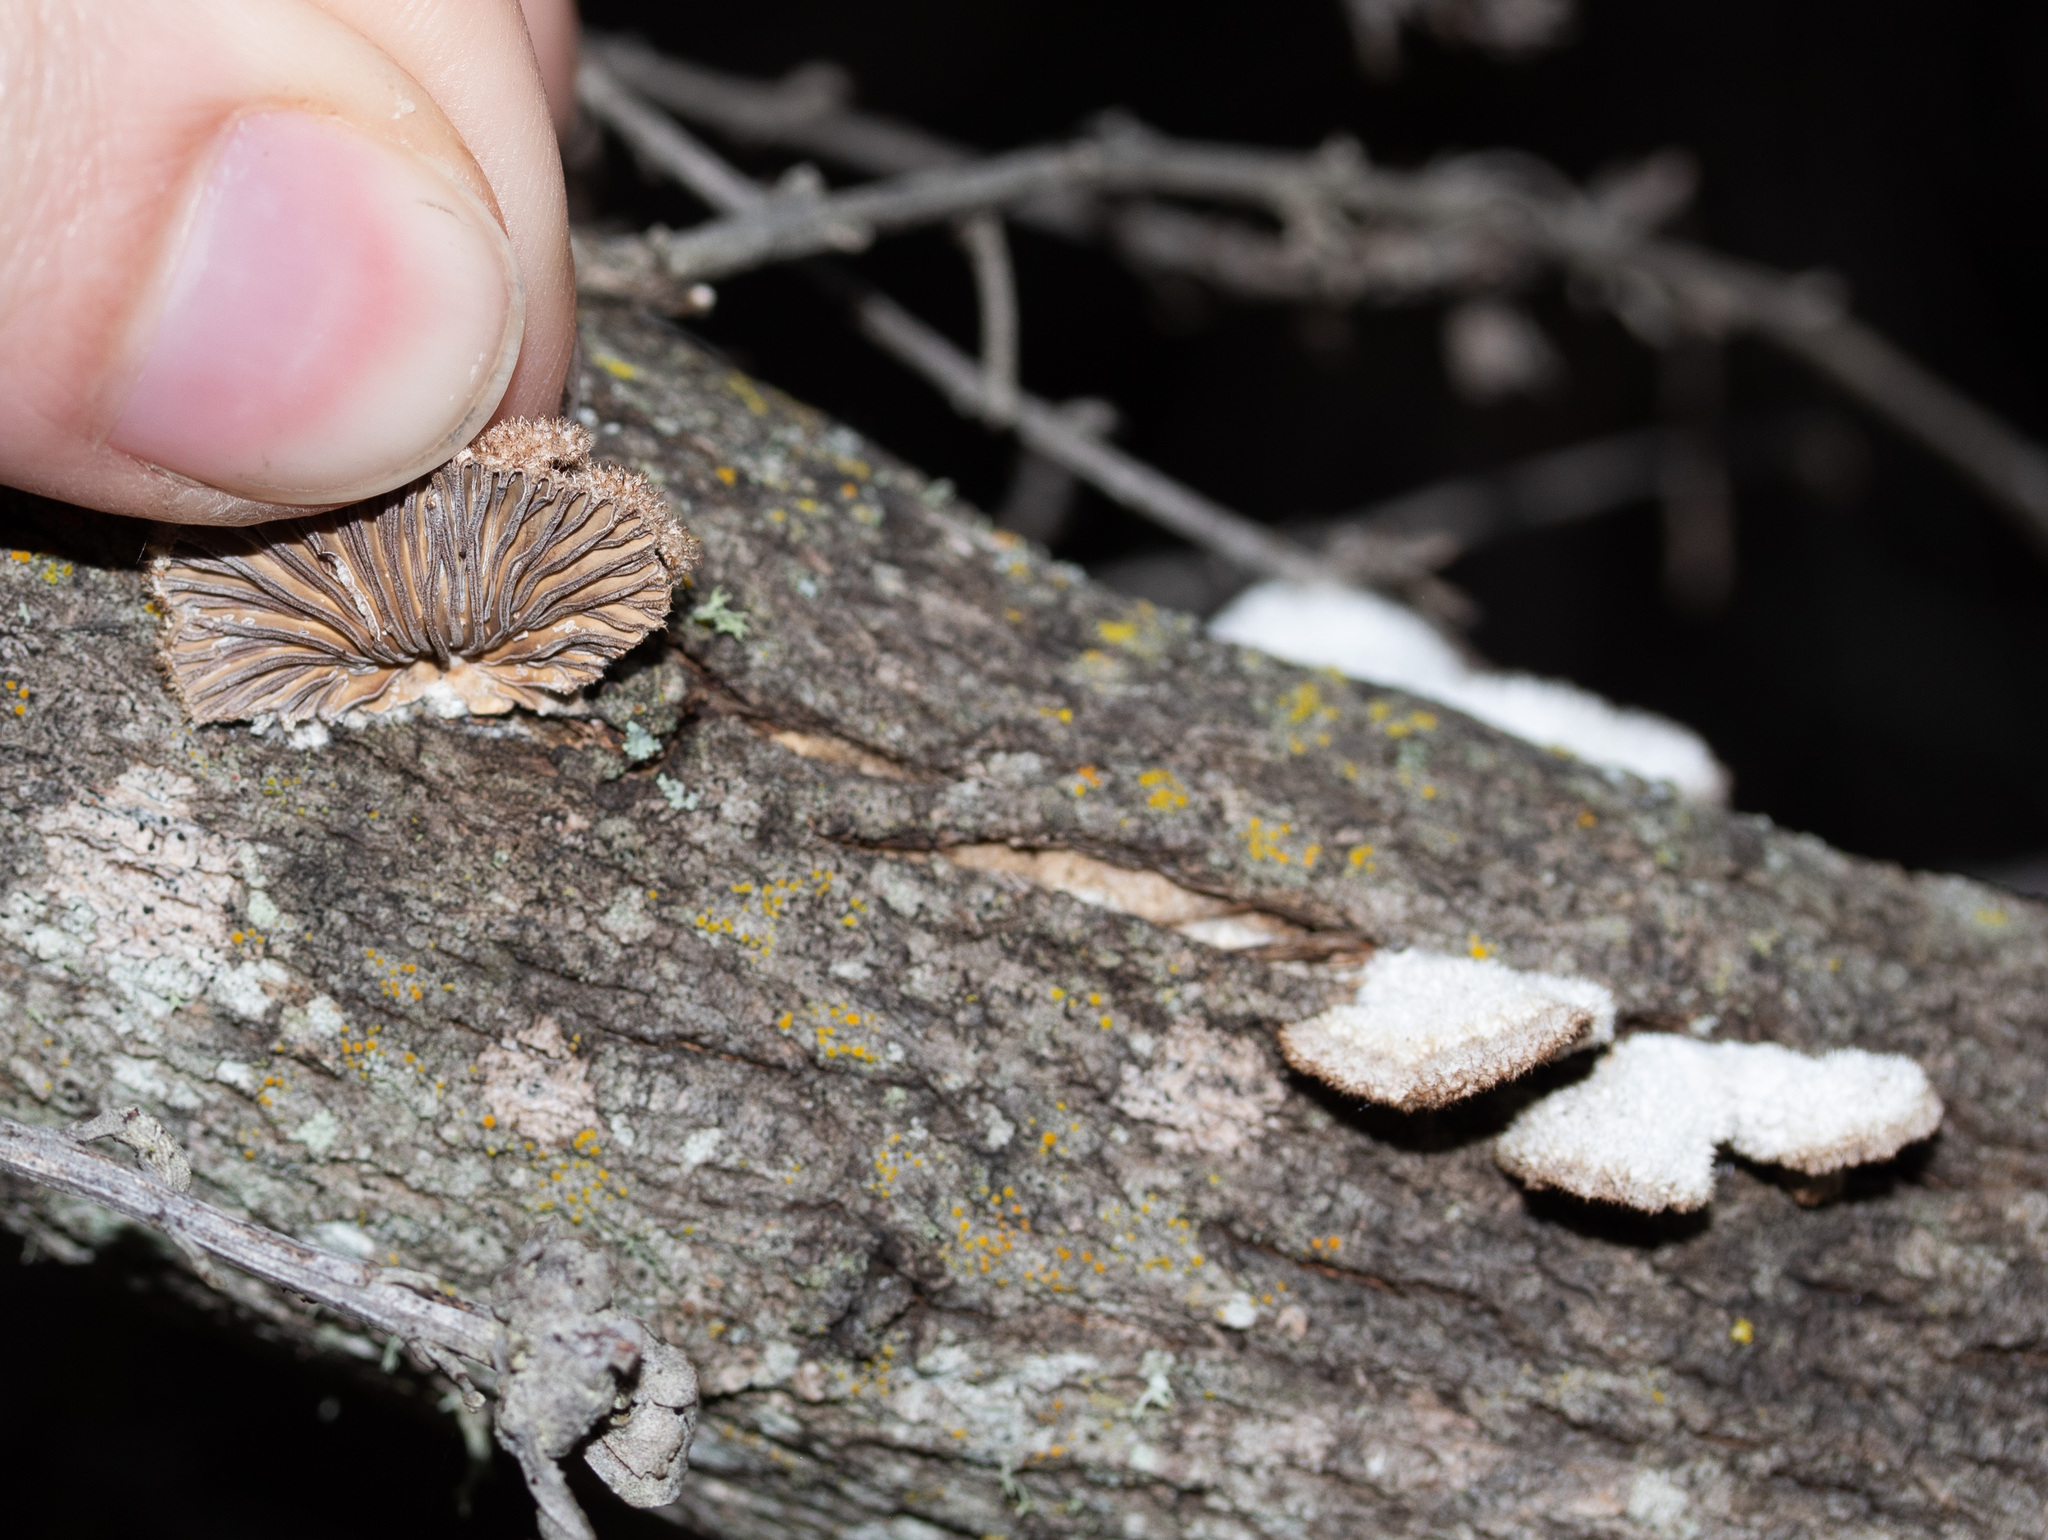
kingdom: Fungi
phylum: Basidiomycota
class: Agaricomycetes
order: Agaricales
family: Schizophyllaceae
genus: Schizophyllum
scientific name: Schizophyllum commune
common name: Common porecrust
